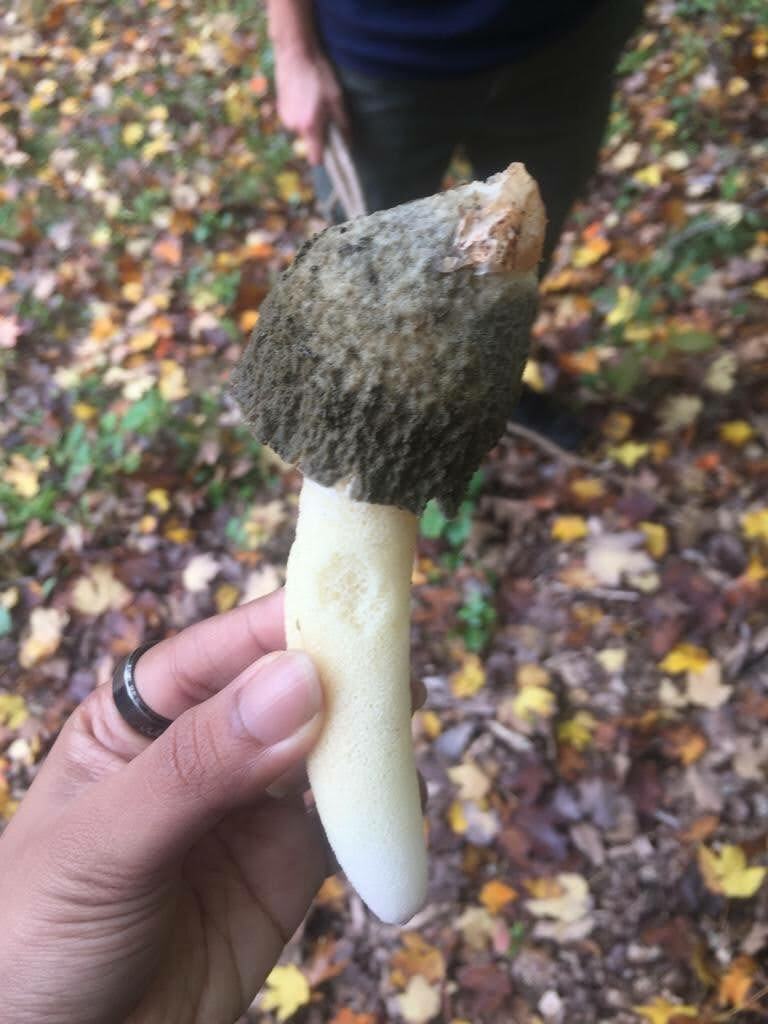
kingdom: Fungi
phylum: Basidiomycota
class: Agaricomycetes
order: Phallales
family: Phallaceae
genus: Phallus
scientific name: Phallus ravenelii
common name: Ravenel's stinkhorn
